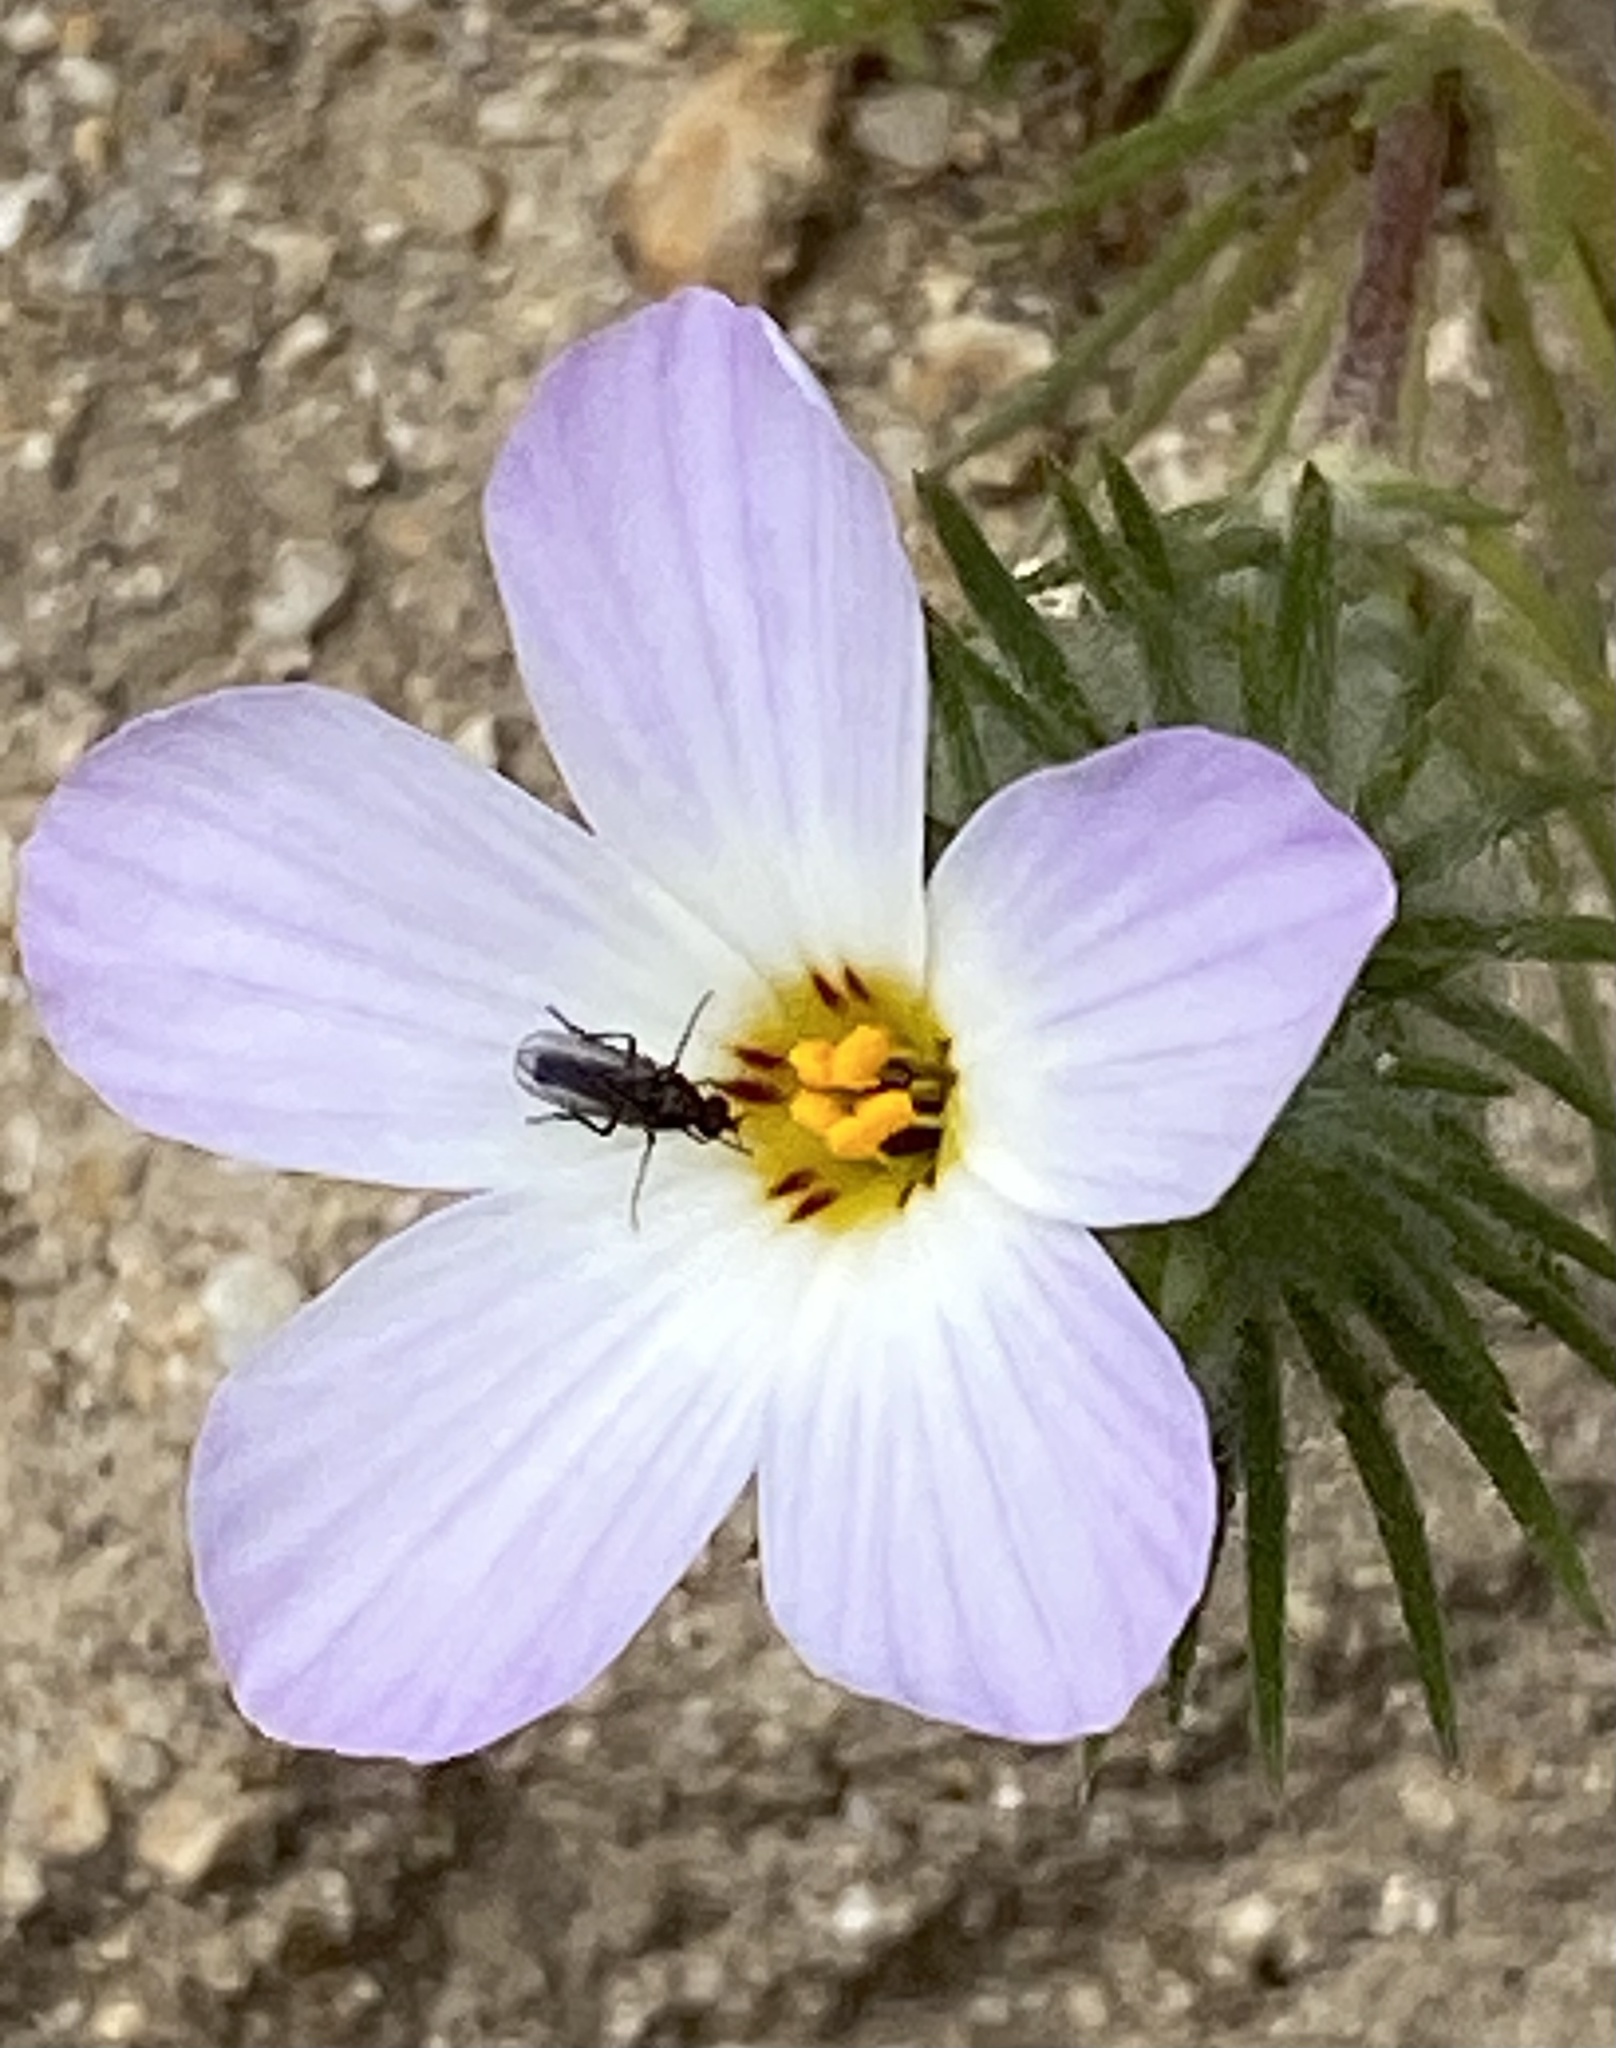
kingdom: Plantae
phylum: Tracheophyta
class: Magnoliopsida
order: Ericales
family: Polemoniaceae
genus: Leptosiphon
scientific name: Leptosiphon grandiflorus
